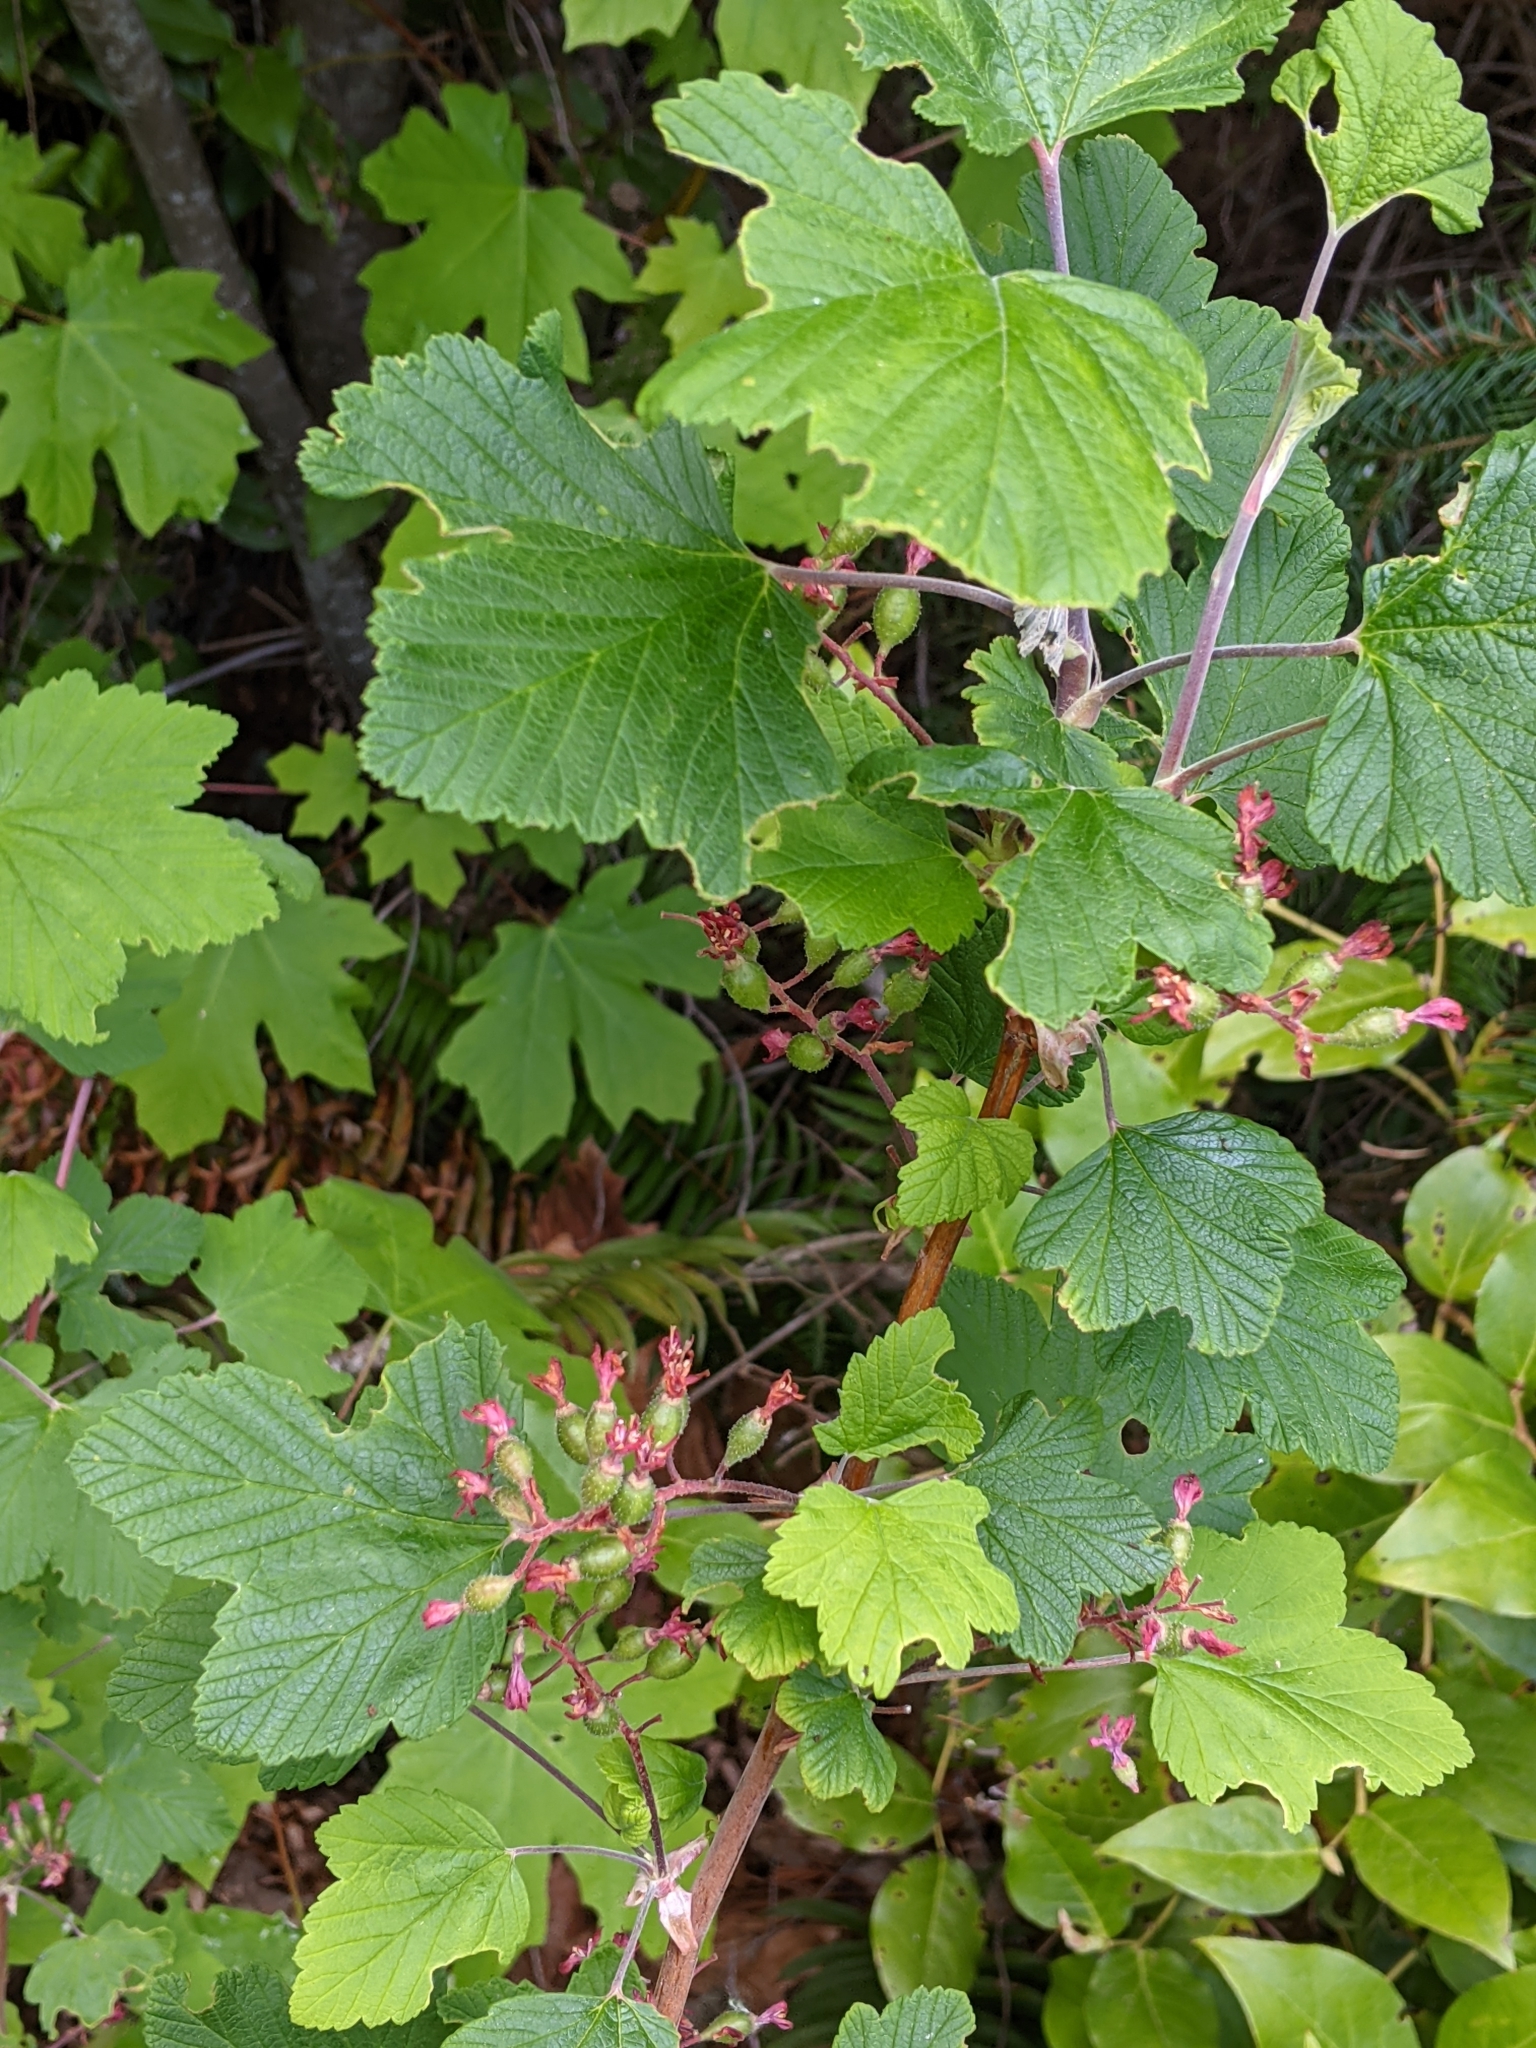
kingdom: Plantae
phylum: Tracheophyta
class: Magnoliopsida
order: Saxifragales
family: Grossulariaceae
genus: Ribes
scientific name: Ribes sanguineum
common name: Flowering currant
